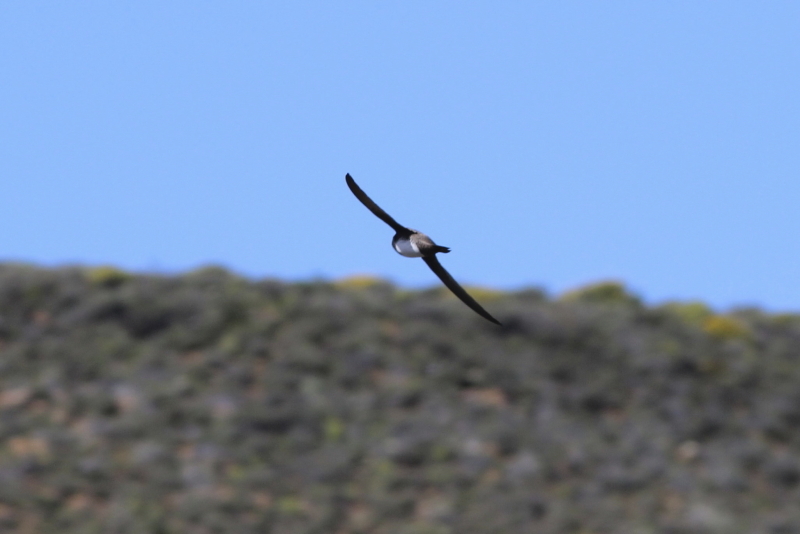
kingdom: Animalia
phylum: Chordata
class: Aves
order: Apodiformes
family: Apodidae
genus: Tachymarptis
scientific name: Tachymarptis melba
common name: Alpine swift
